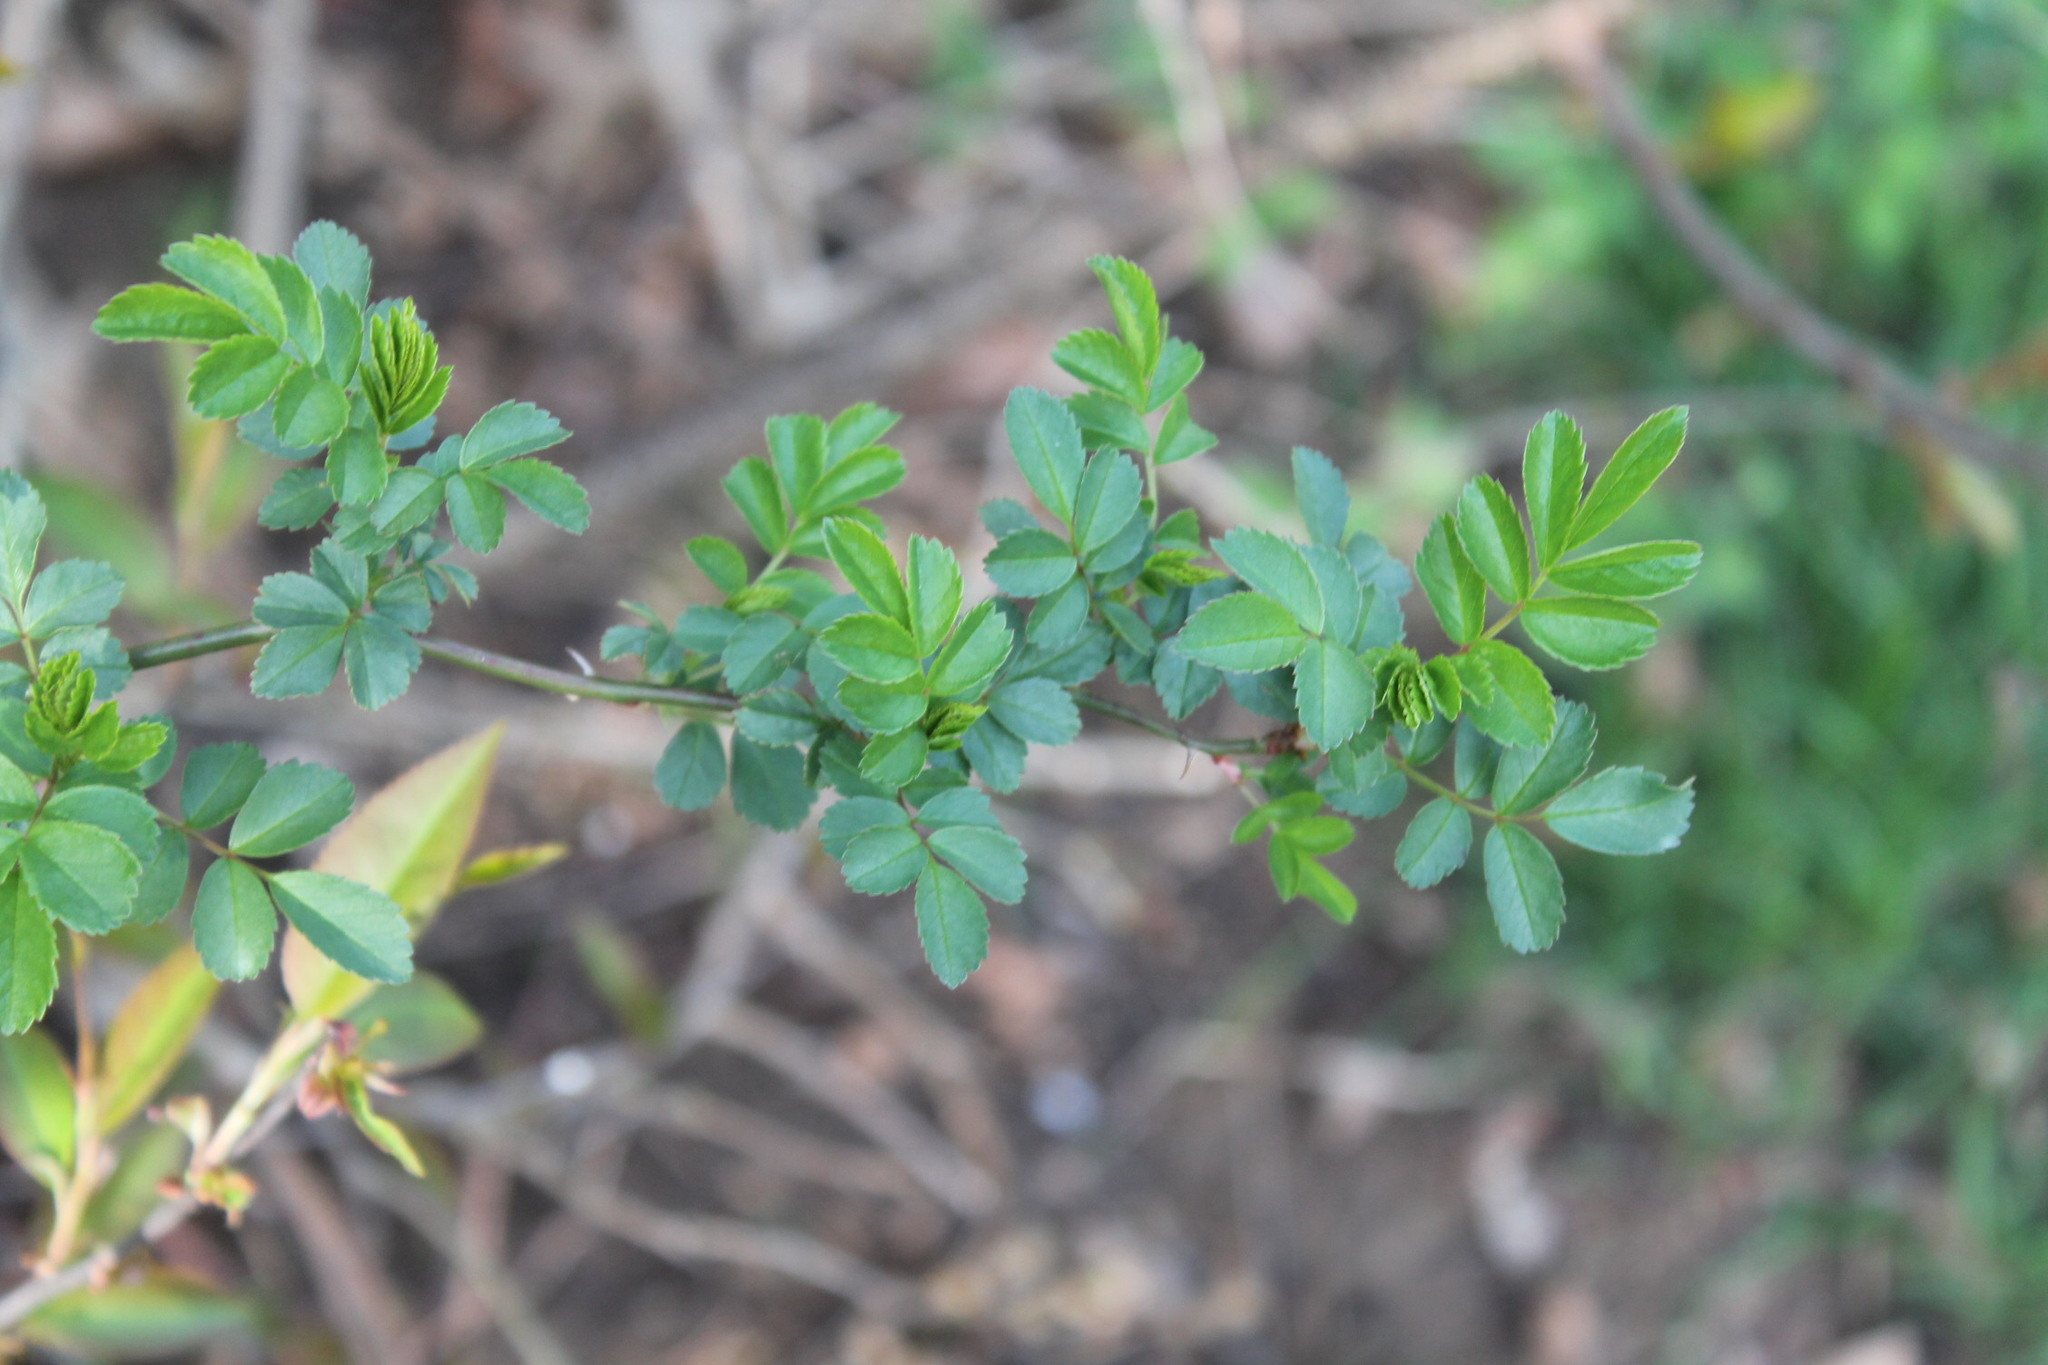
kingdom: Plantae
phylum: Tracheophyta
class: Magnoliopsida
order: Rosales
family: Rosaceae
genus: Rosa
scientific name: Rosa multiflora
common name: Multiflora rose
